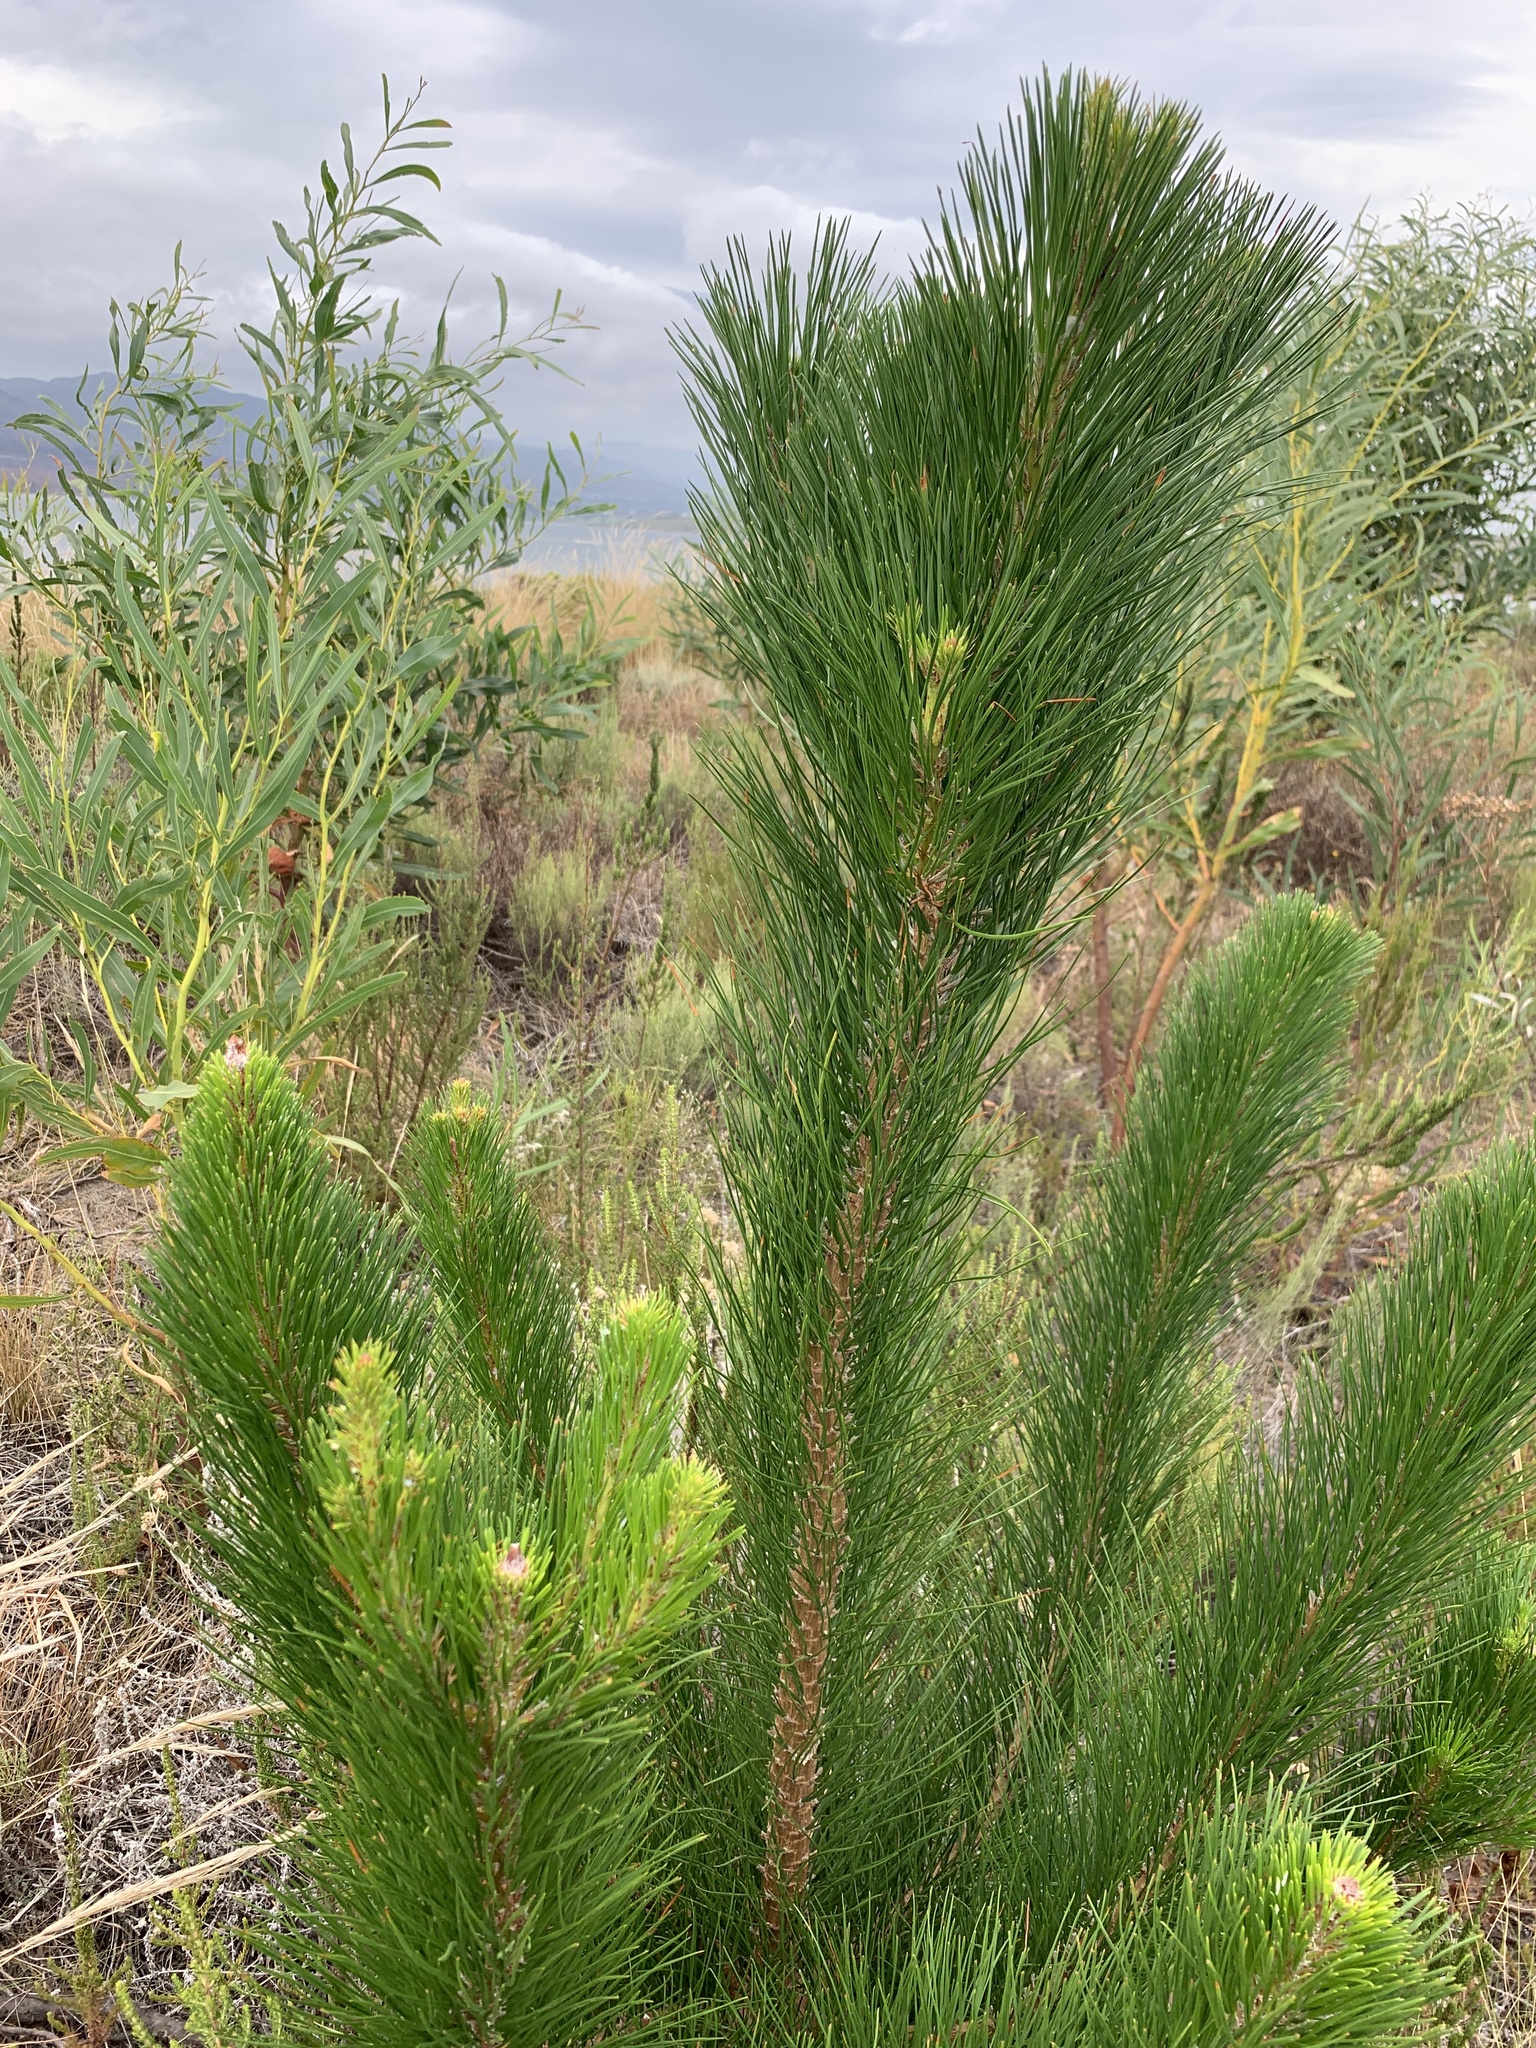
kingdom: Plantae
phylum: Tracheophyta
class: Pinopsida
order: Pinales
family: Pinaceae
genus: Pinus
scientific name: Pinus radiata
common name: Monterey pine
